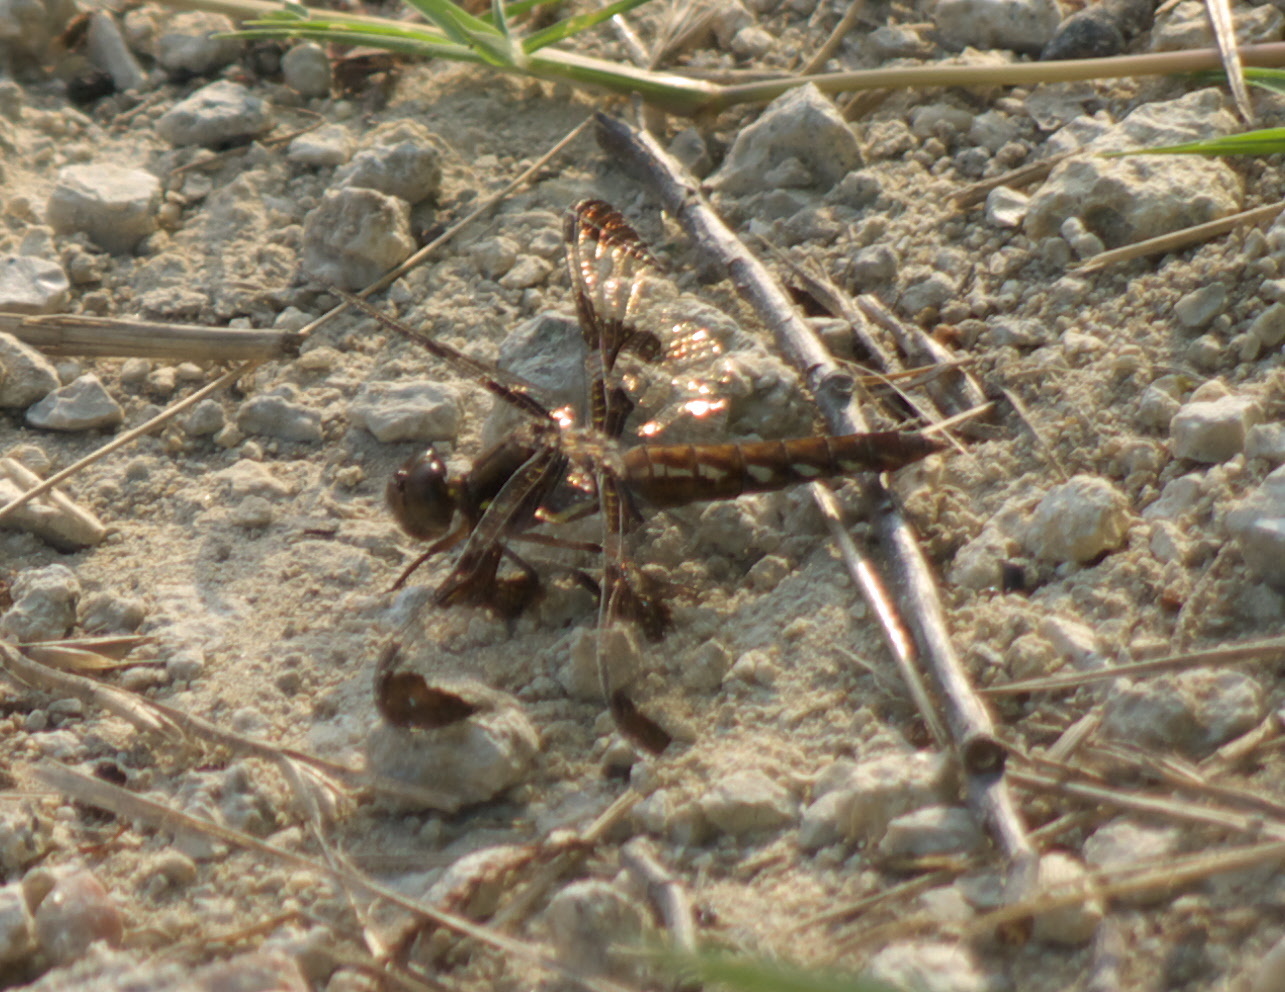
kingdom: Animalia
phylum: Arthropoda
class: Insecta
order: Odonata
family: Libellulidae
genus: Plathemis
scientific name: Plathemis lydia
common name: Common whitetail
